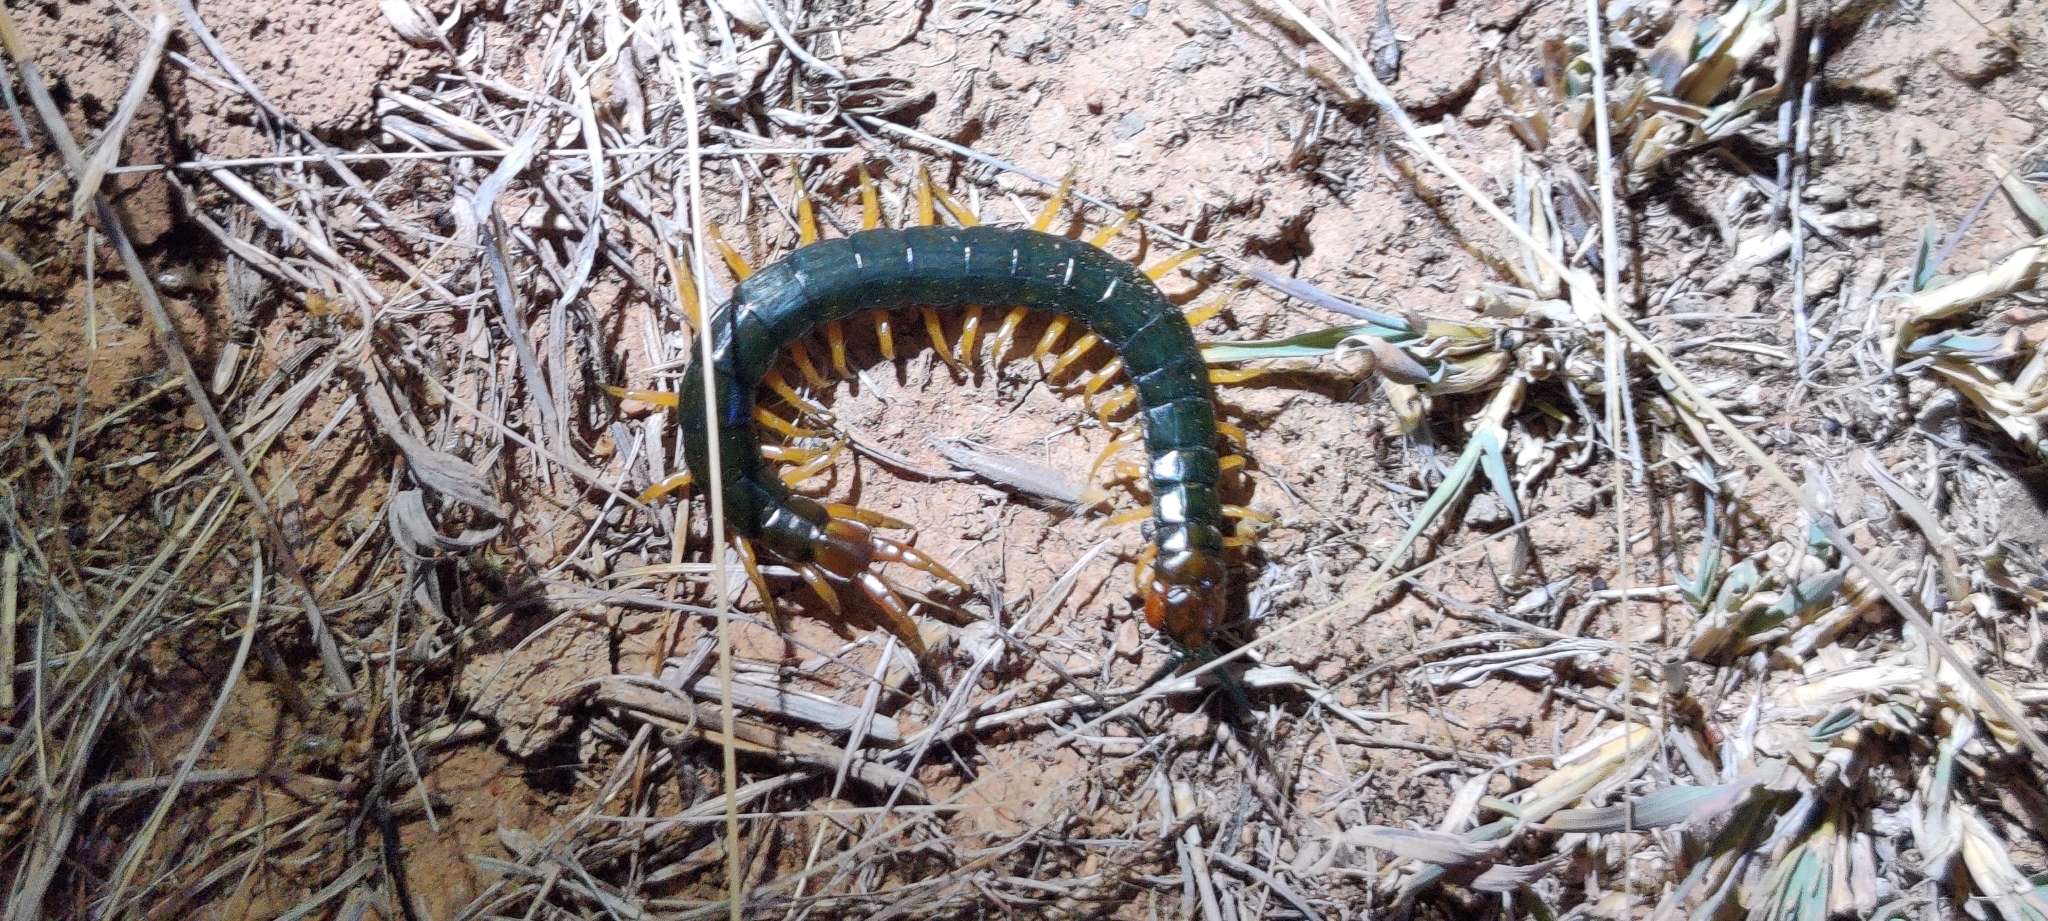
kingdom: Animalia
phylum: Arthropoda
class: Chilopoda
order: Scolopendromorpha
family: Scolopendridae
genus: Cormocephalus
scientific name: Cormocephalus aurantiipes
